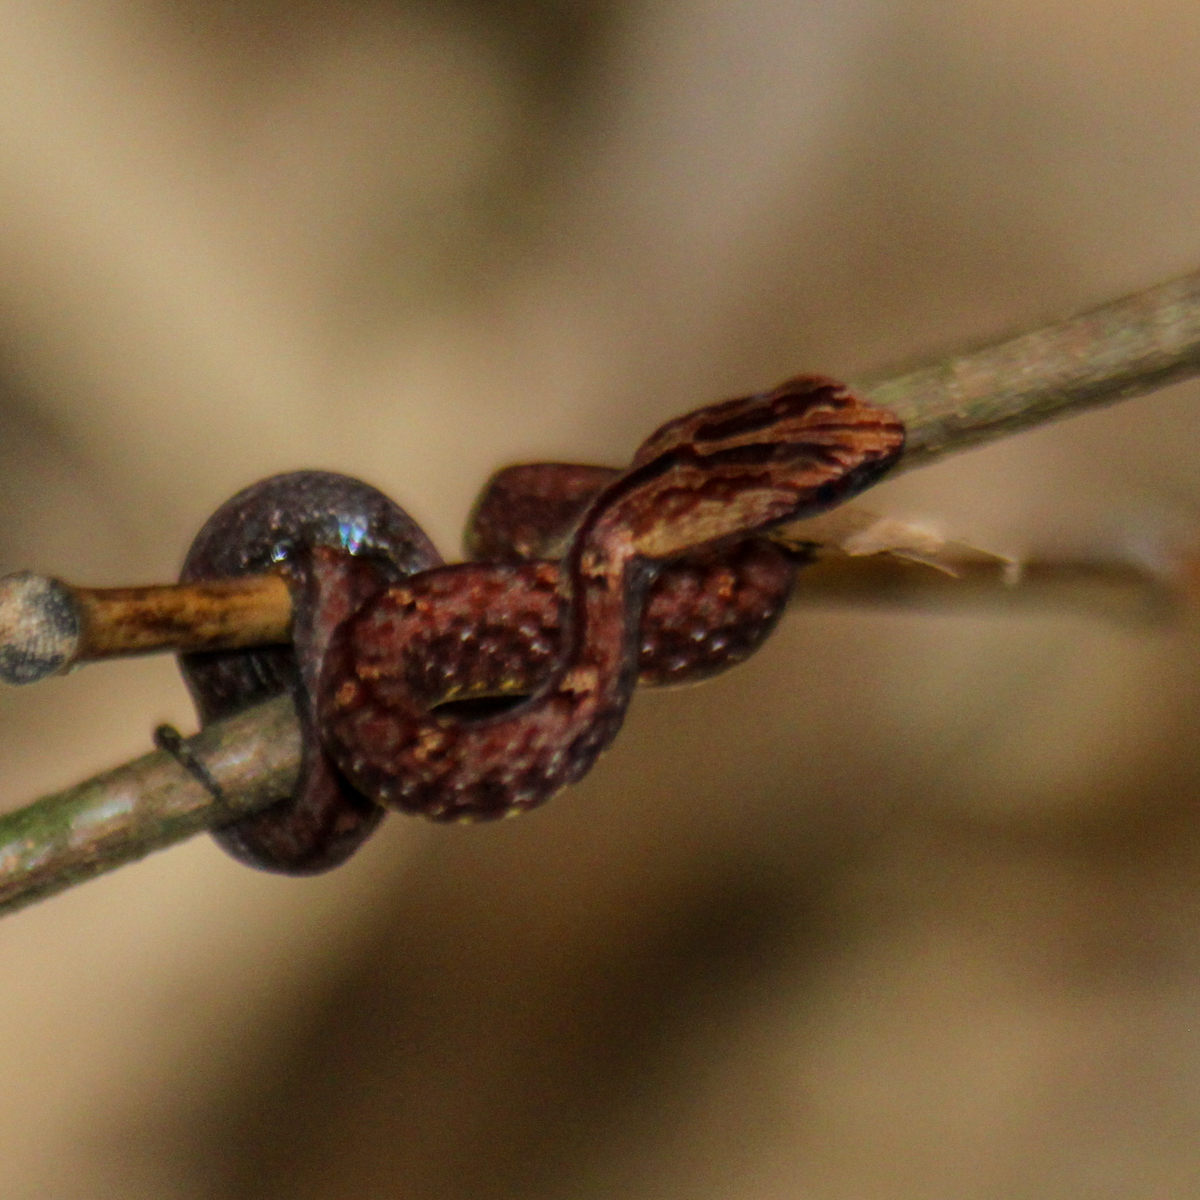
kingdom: Animalia
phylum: Chordata
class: Squamata
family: Pseudaspididae
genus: Psammodynastes
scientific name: Psammodynastes pulverulentus
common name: Common mock viper
